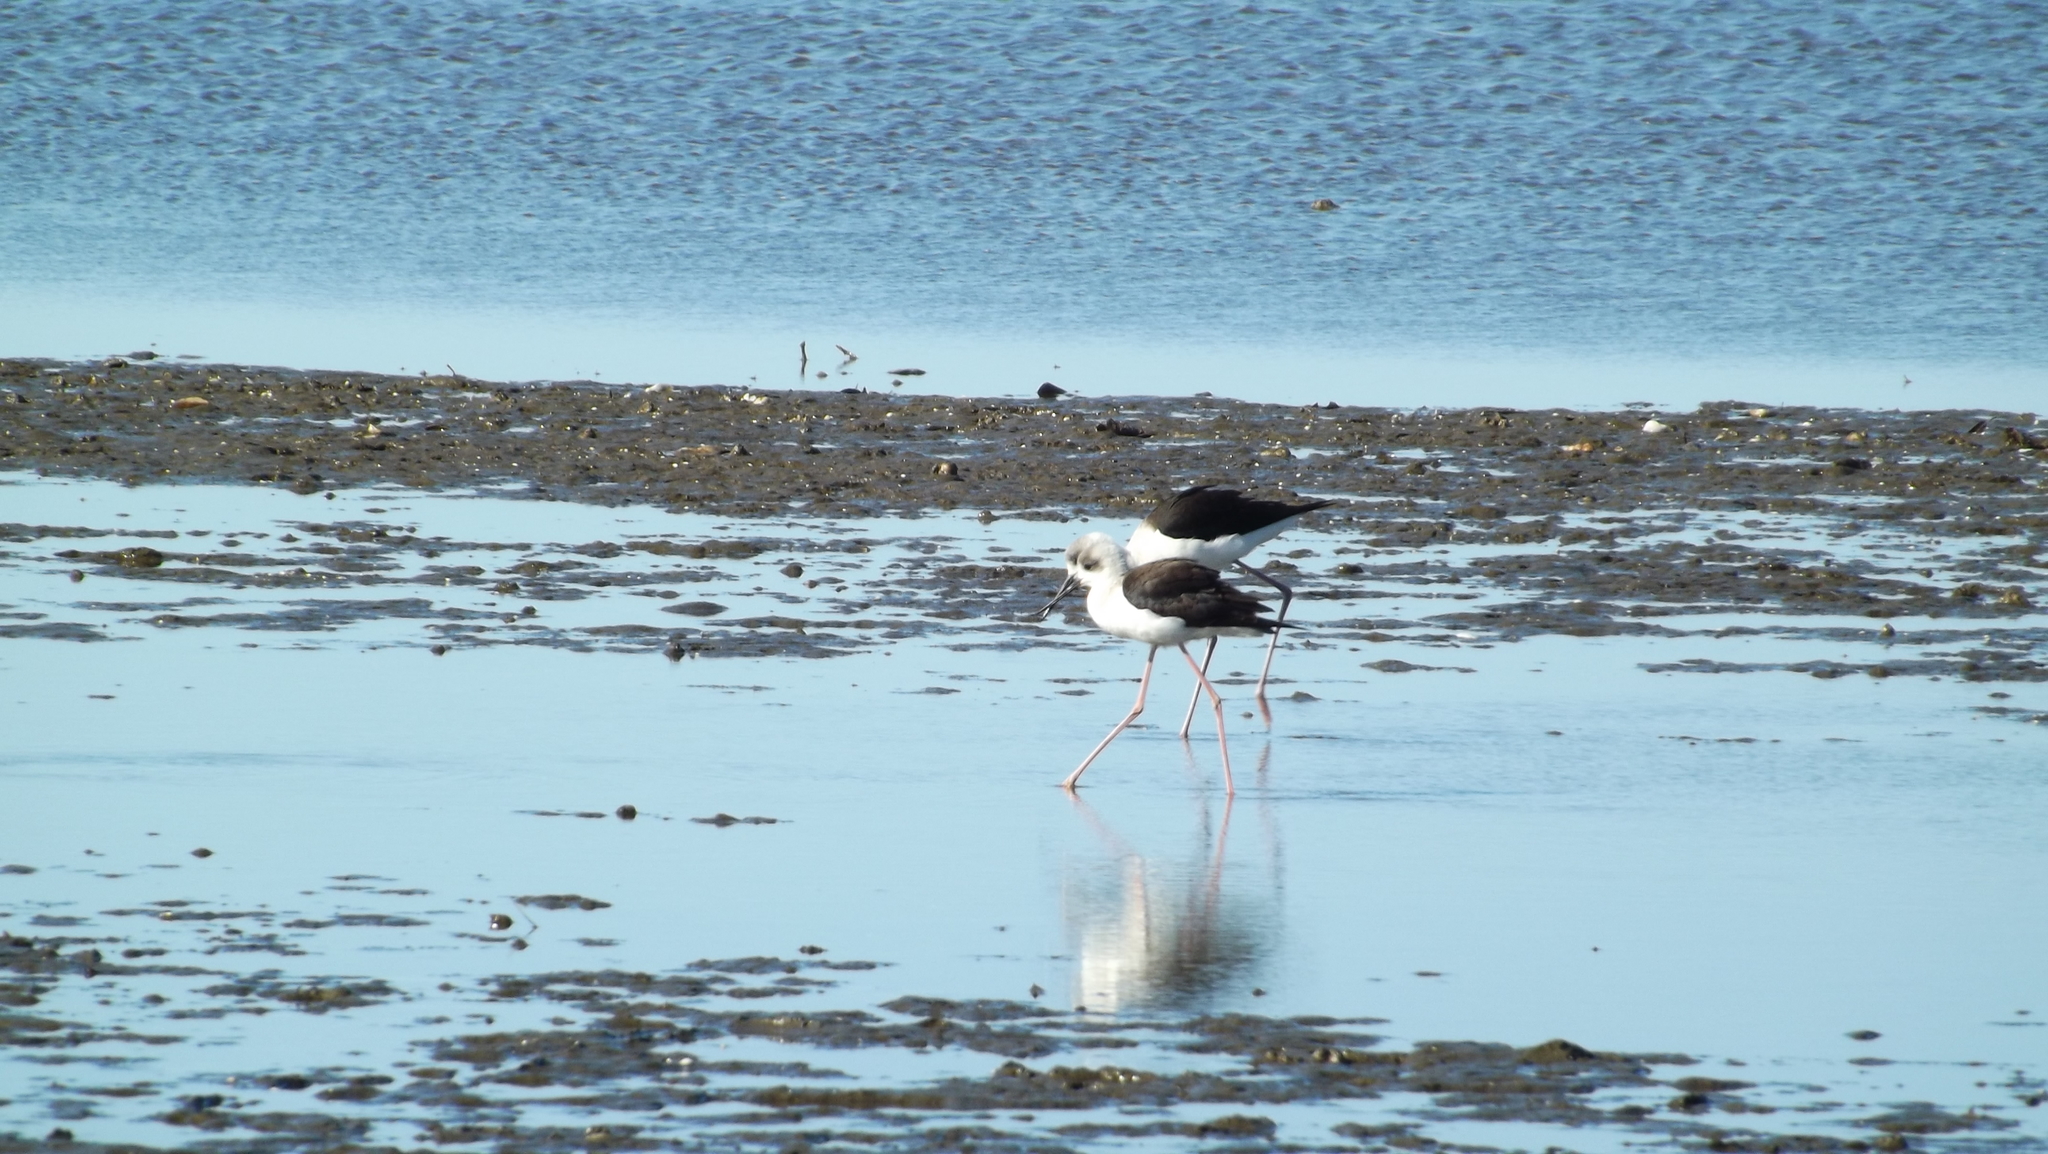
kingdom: Animalia
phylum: Chordata
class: Aves
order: Charadriiformes
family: Recurvirostridae
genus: Himantopus
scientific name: Himantopus leucocephalus
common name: White-headed stilt
